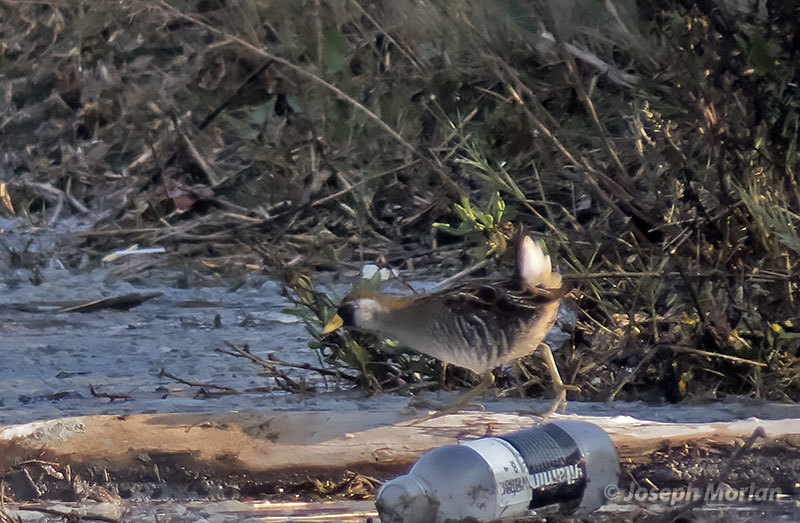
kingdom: Animalia
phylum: Chordata
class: Aves
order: Gruiformes
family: Rallidae
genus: Porzana
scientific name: Porzana carolina
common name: Sora
